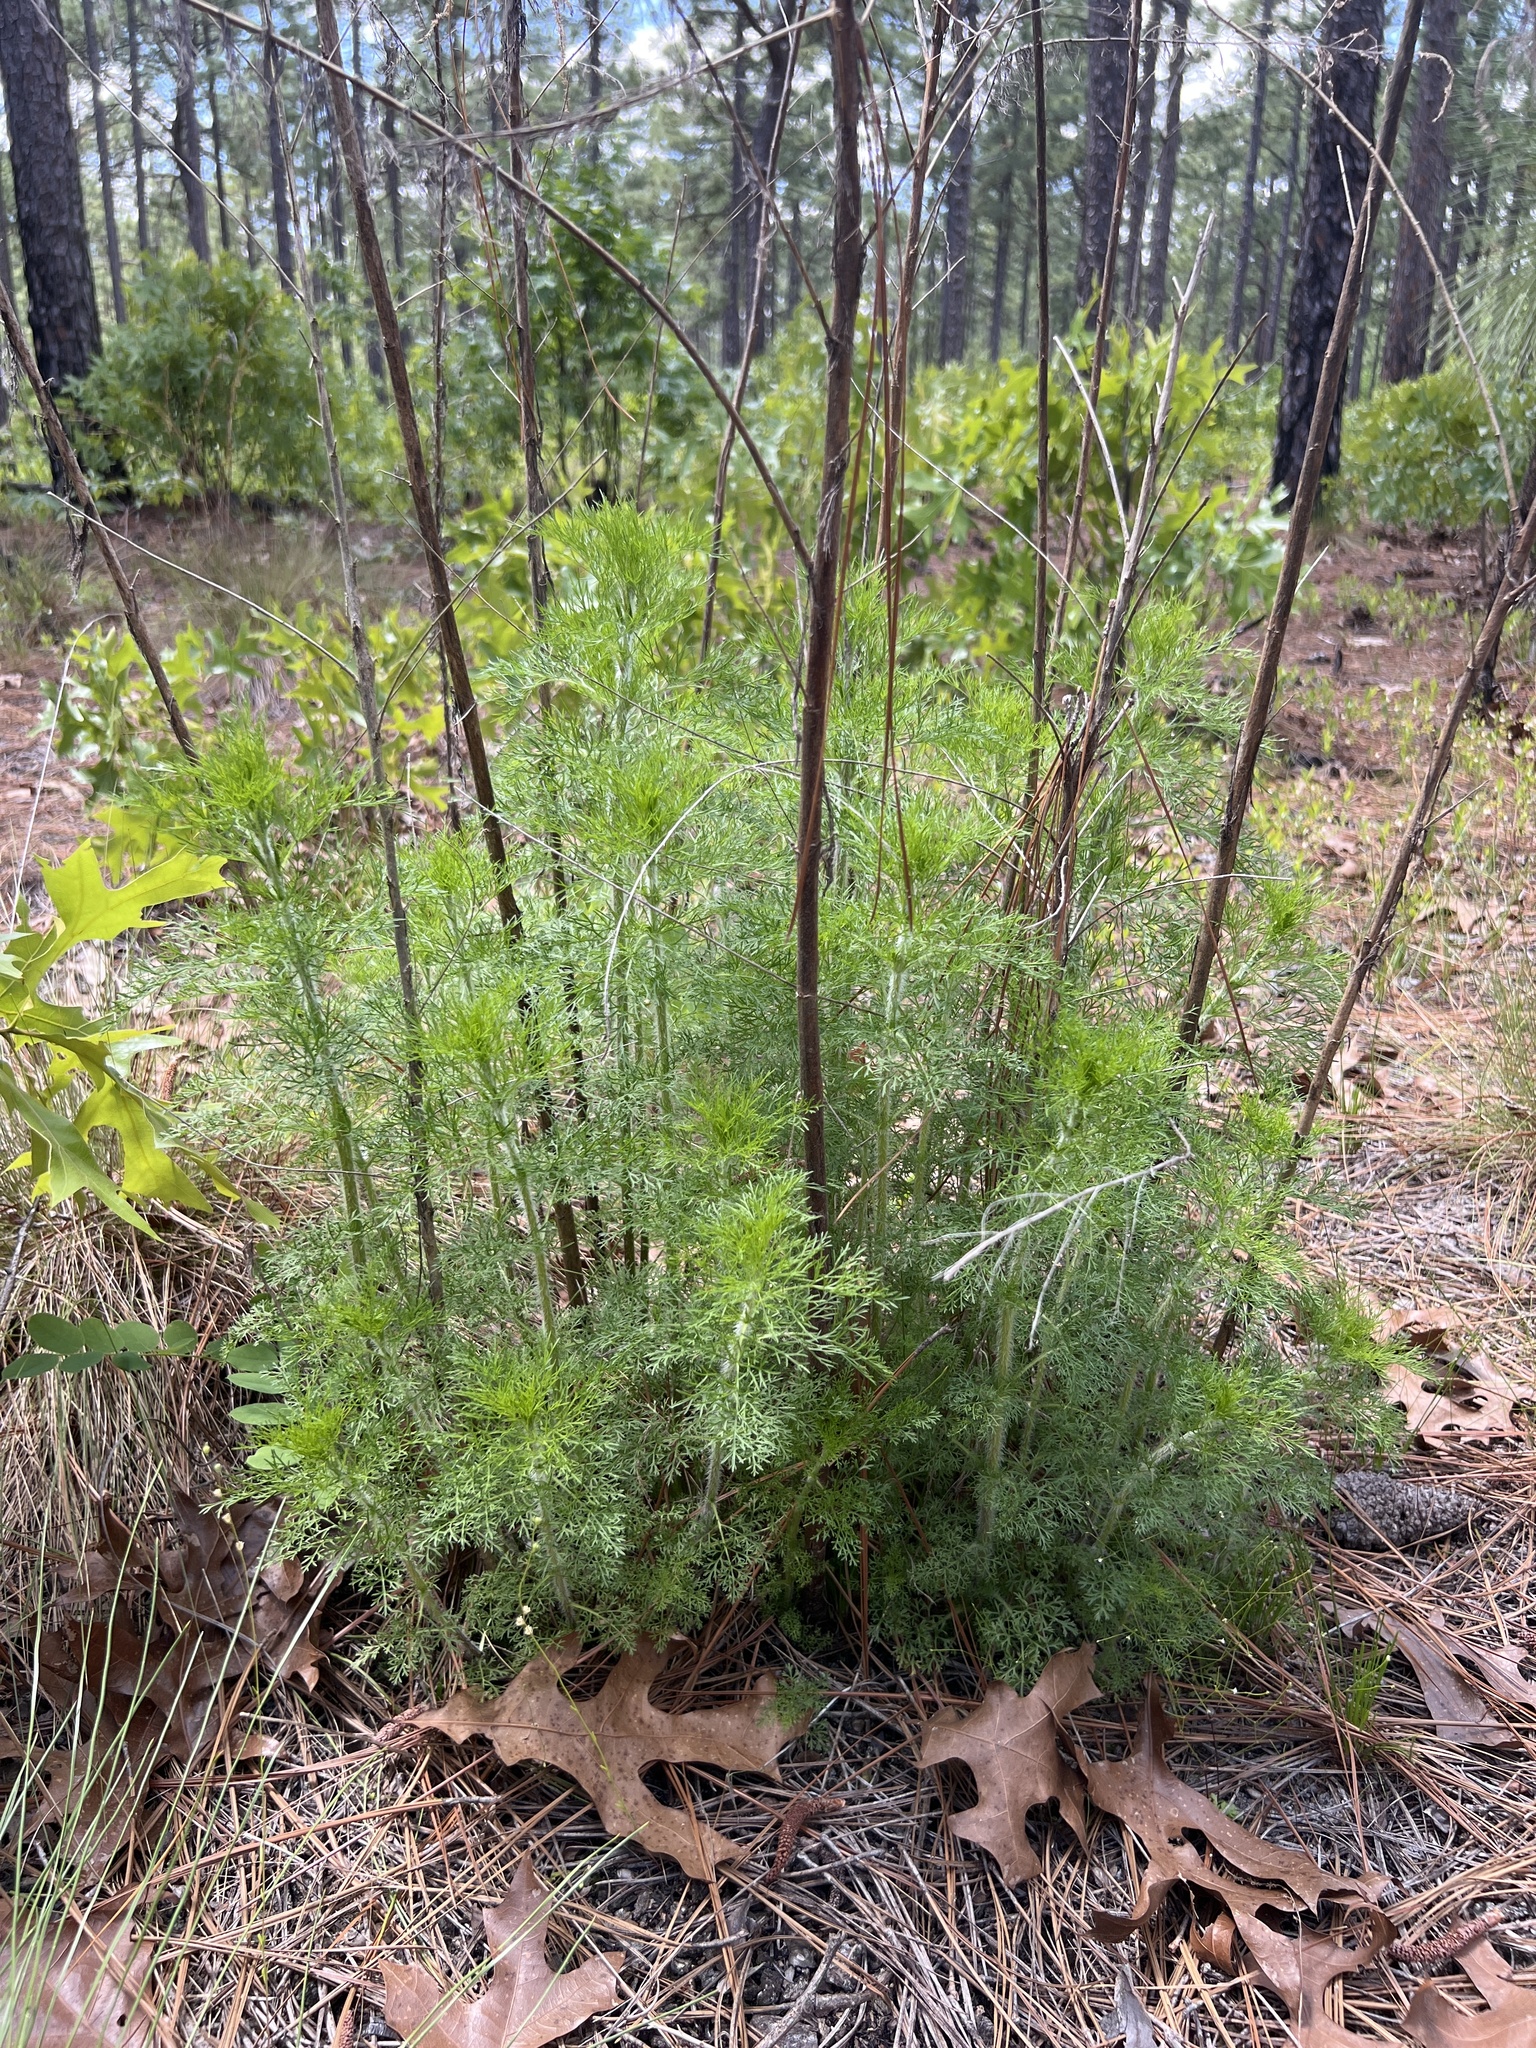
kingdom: Plantae
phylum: Tracheophyta
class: Magnoliopsida
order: Asterales
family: Asteraceae
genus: Eupatorium
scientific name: Eupatorium capillifolium
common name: Dog-fennel
